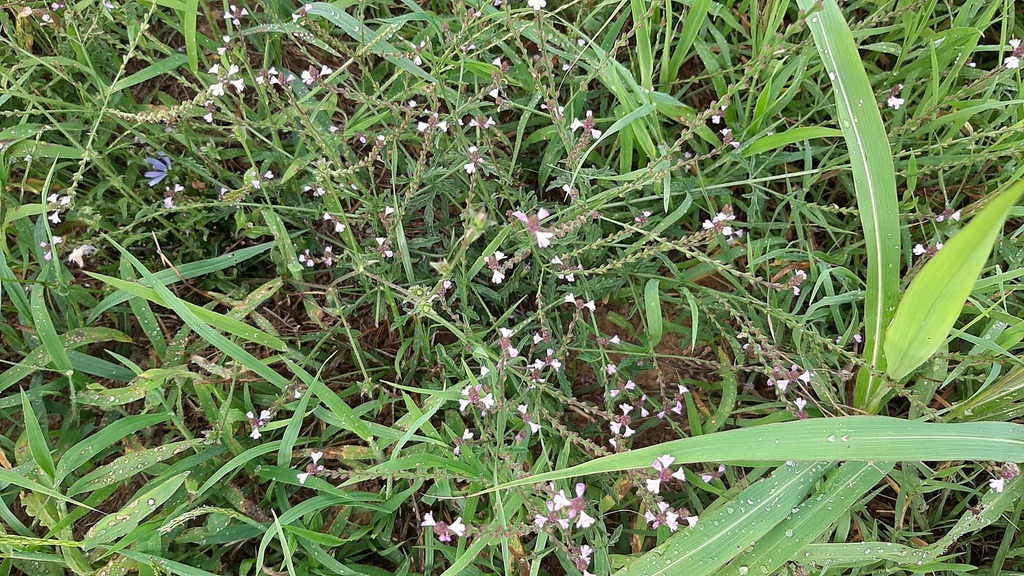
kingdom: Plantae
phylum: Tracheophyta
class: Magnoliopsida
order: Lamiales
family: Verbenaceae
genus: Verbena
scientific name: Verbena officinalis
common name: Vervain
